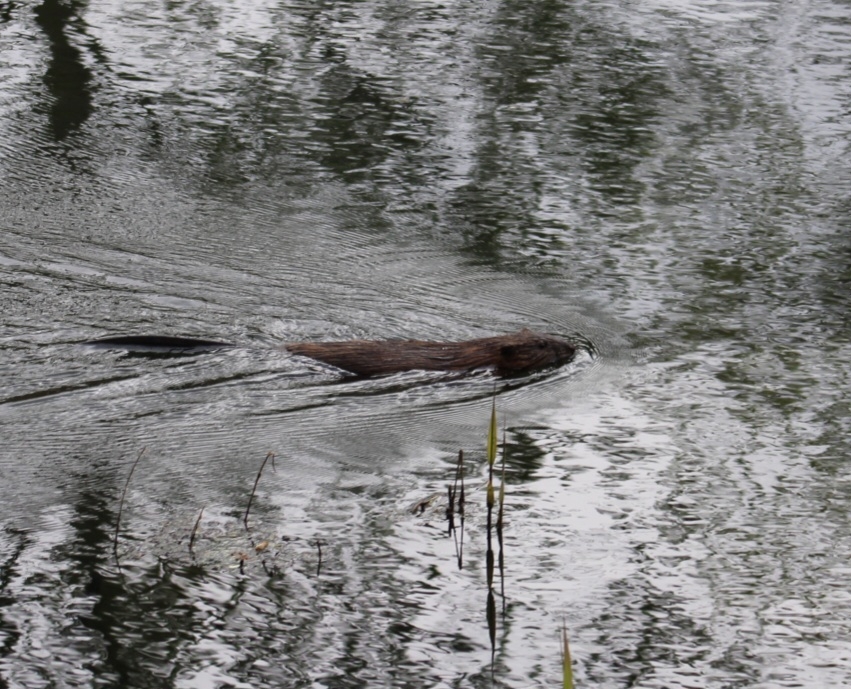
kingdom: Animalia
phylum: Chordata
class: Mammalia
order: Rodentia
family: Cricetidae
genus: Ondatra
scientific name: Ondatra zibethicus
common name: Muskrat
